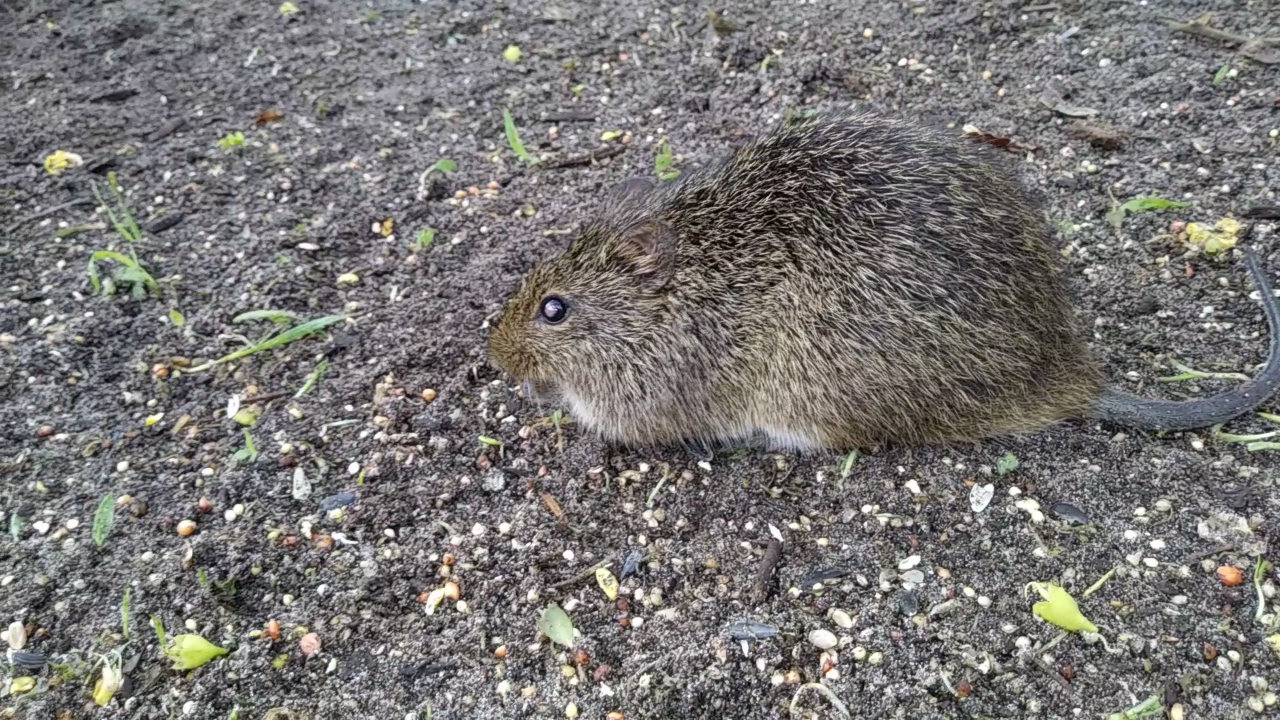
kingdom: Animalia
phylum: Chordata
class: Mammalia
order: Rodentia
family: Cricetidae
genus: Sigmodon
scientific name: Sigmodon hispidus
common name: Hispid cotton rat
